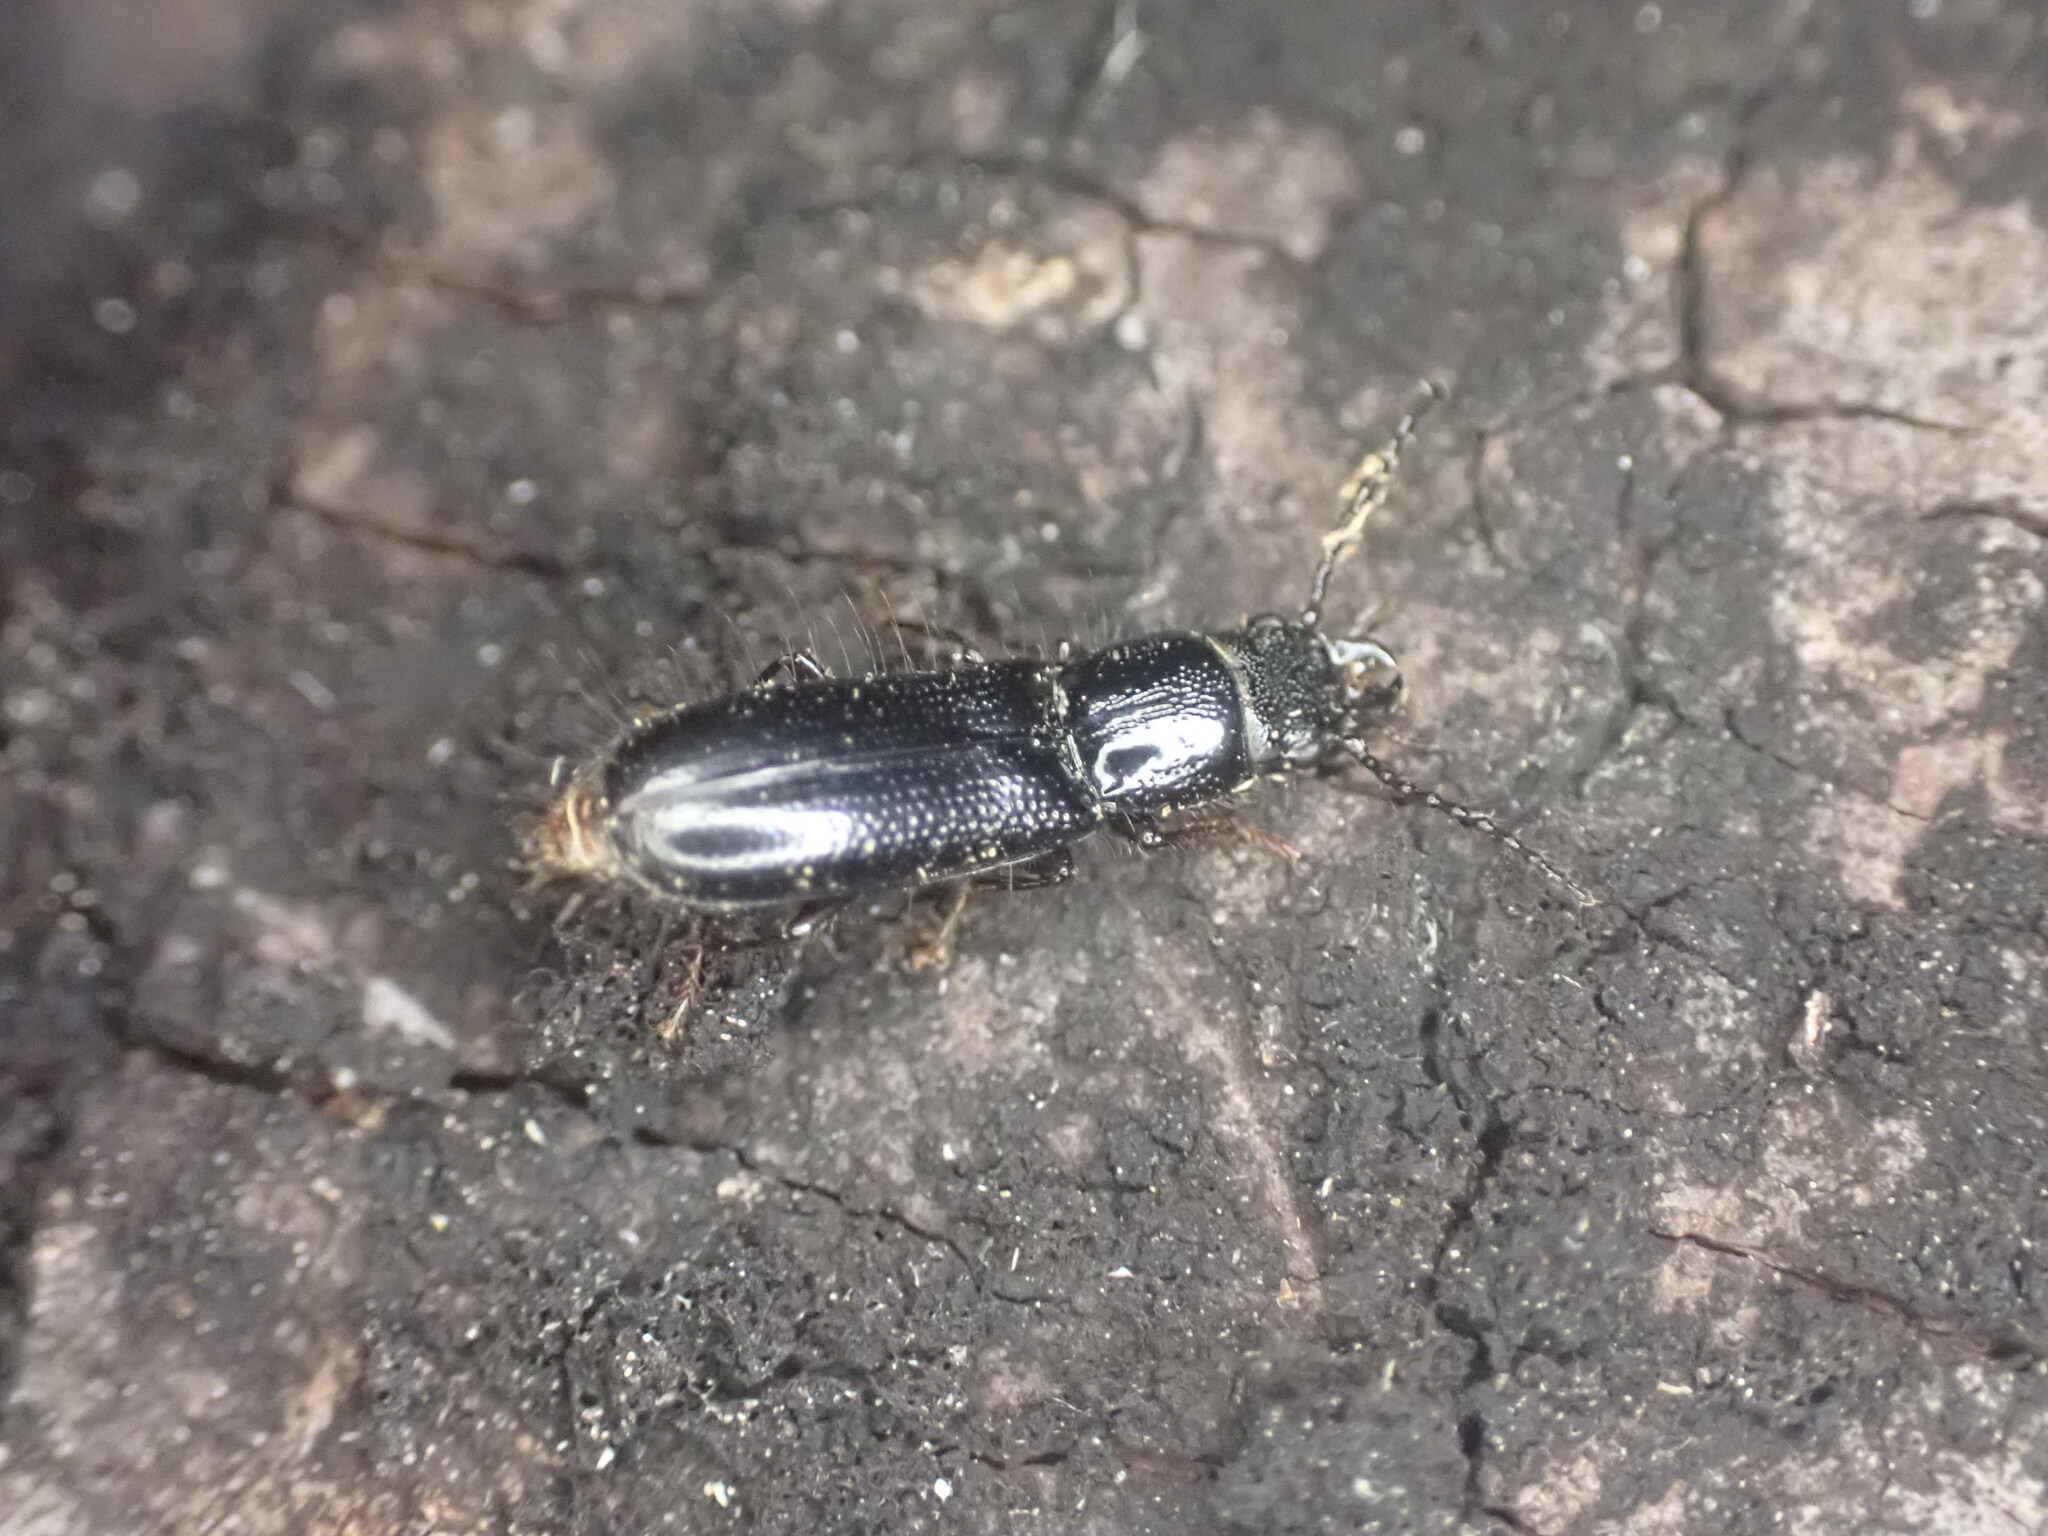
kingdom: Animalia
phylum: Arthropoda
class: Insecta
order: Coleoptera
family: Chaetosomatidae
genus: Chaetosoma
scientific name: Chaetosoma
